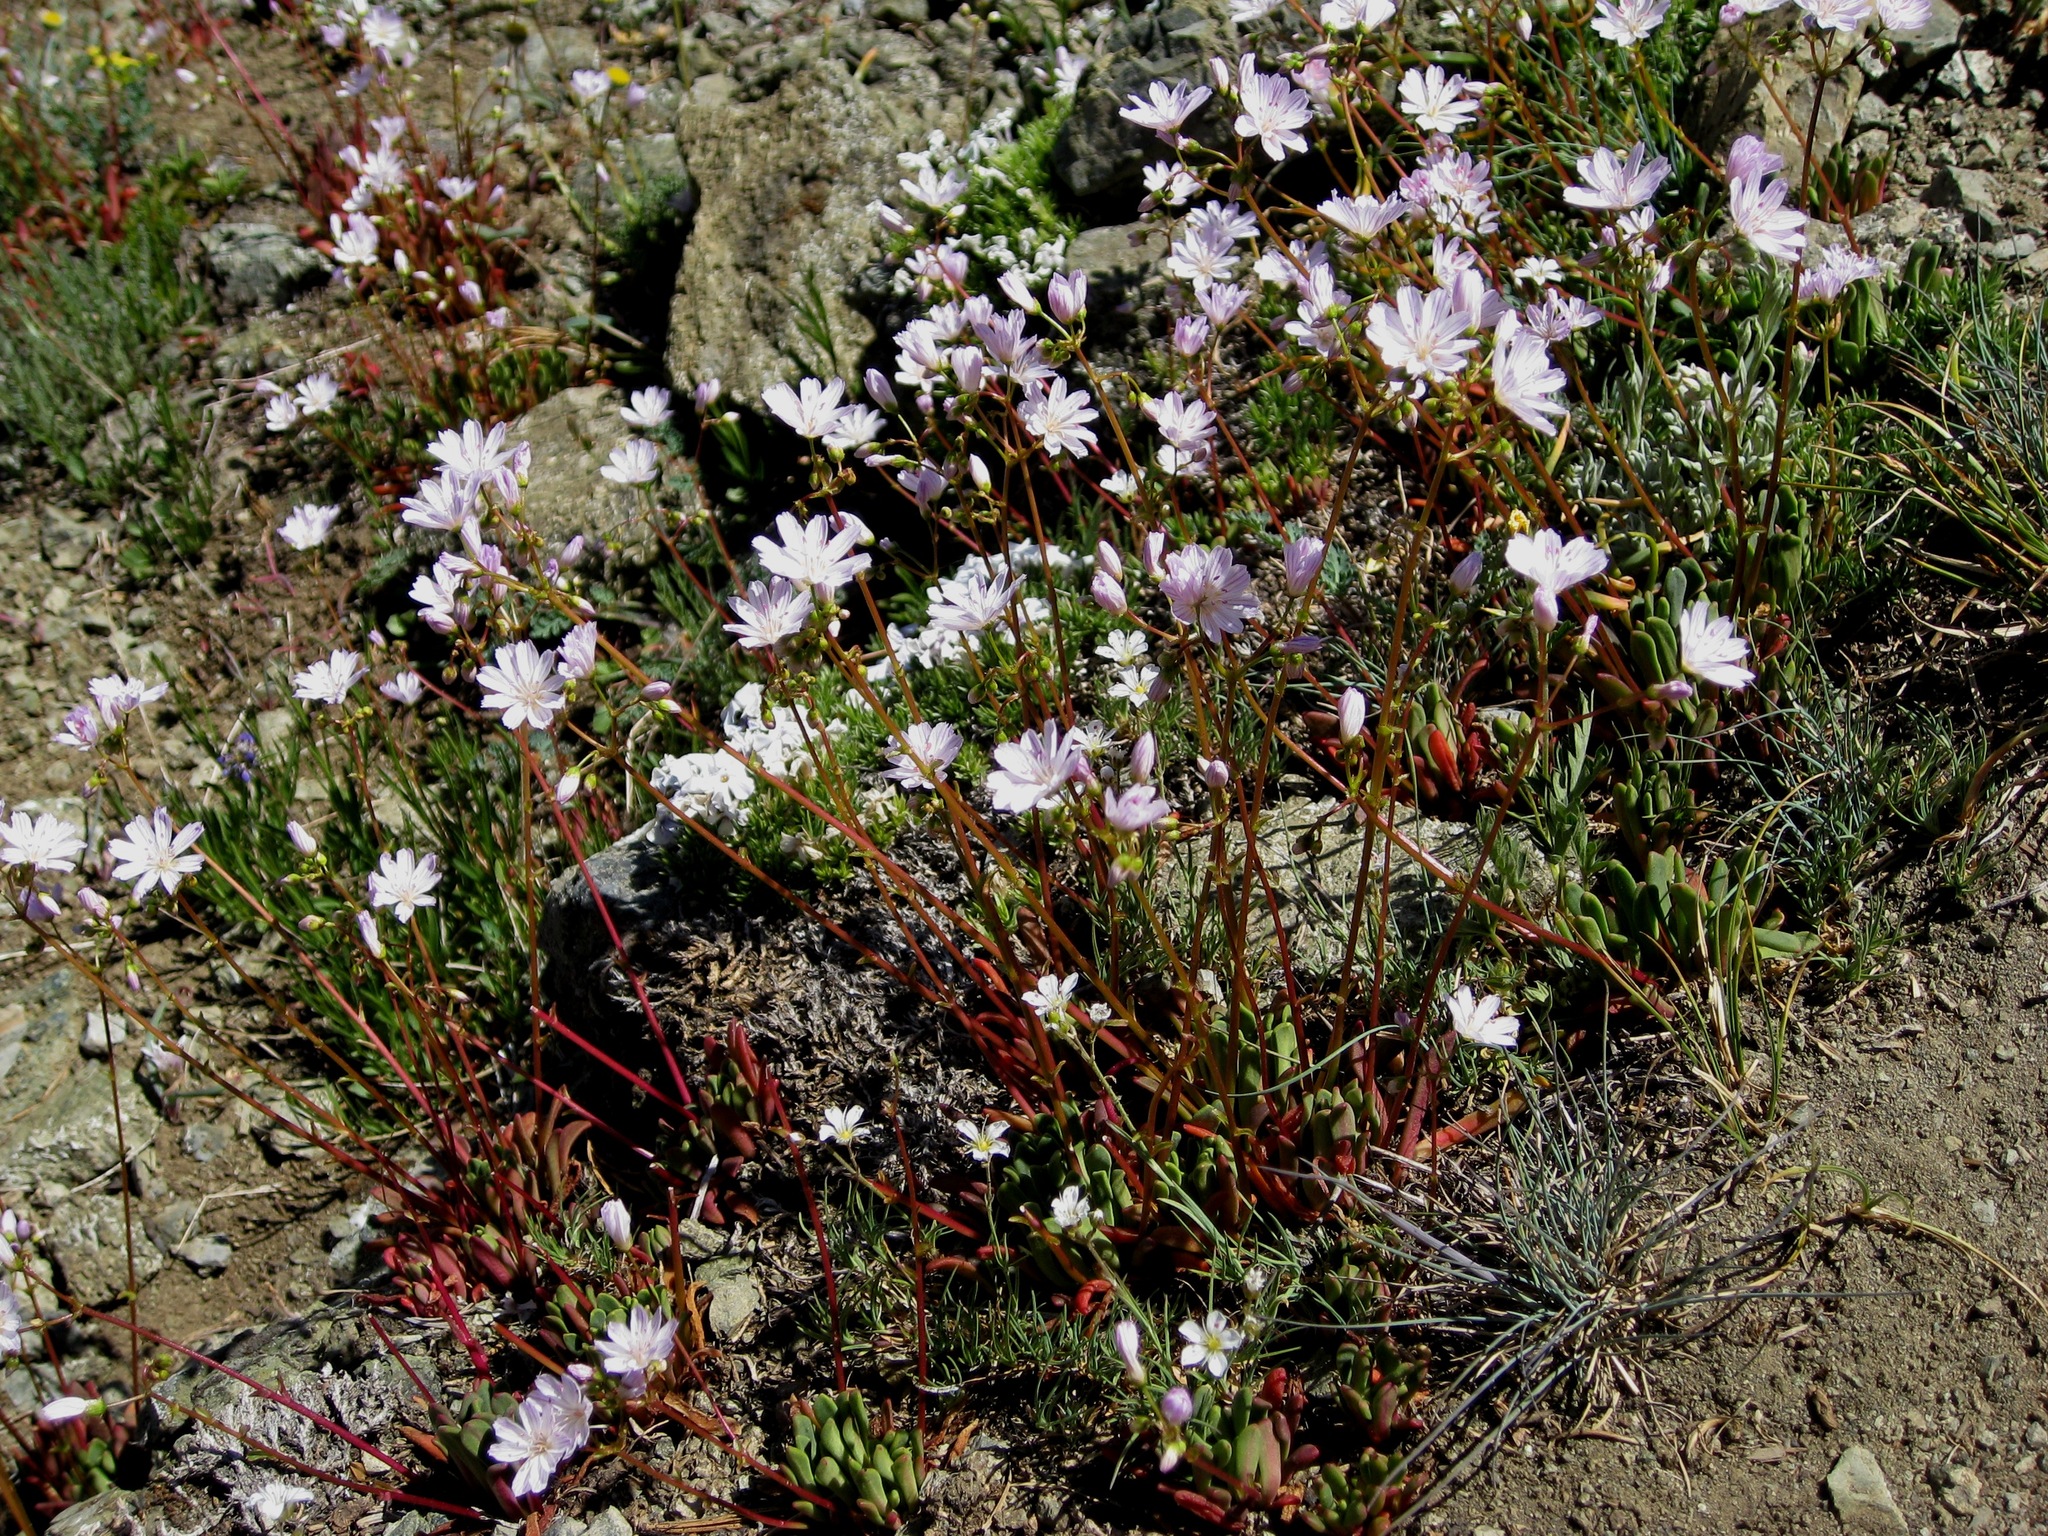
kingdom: Plantae
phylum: Tracheophyta
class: Magnoliopsida
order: Caryophyllales
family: Montiaceae
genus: Lewisia
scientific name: Lewisia columbiana
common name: Columbia lewisia
